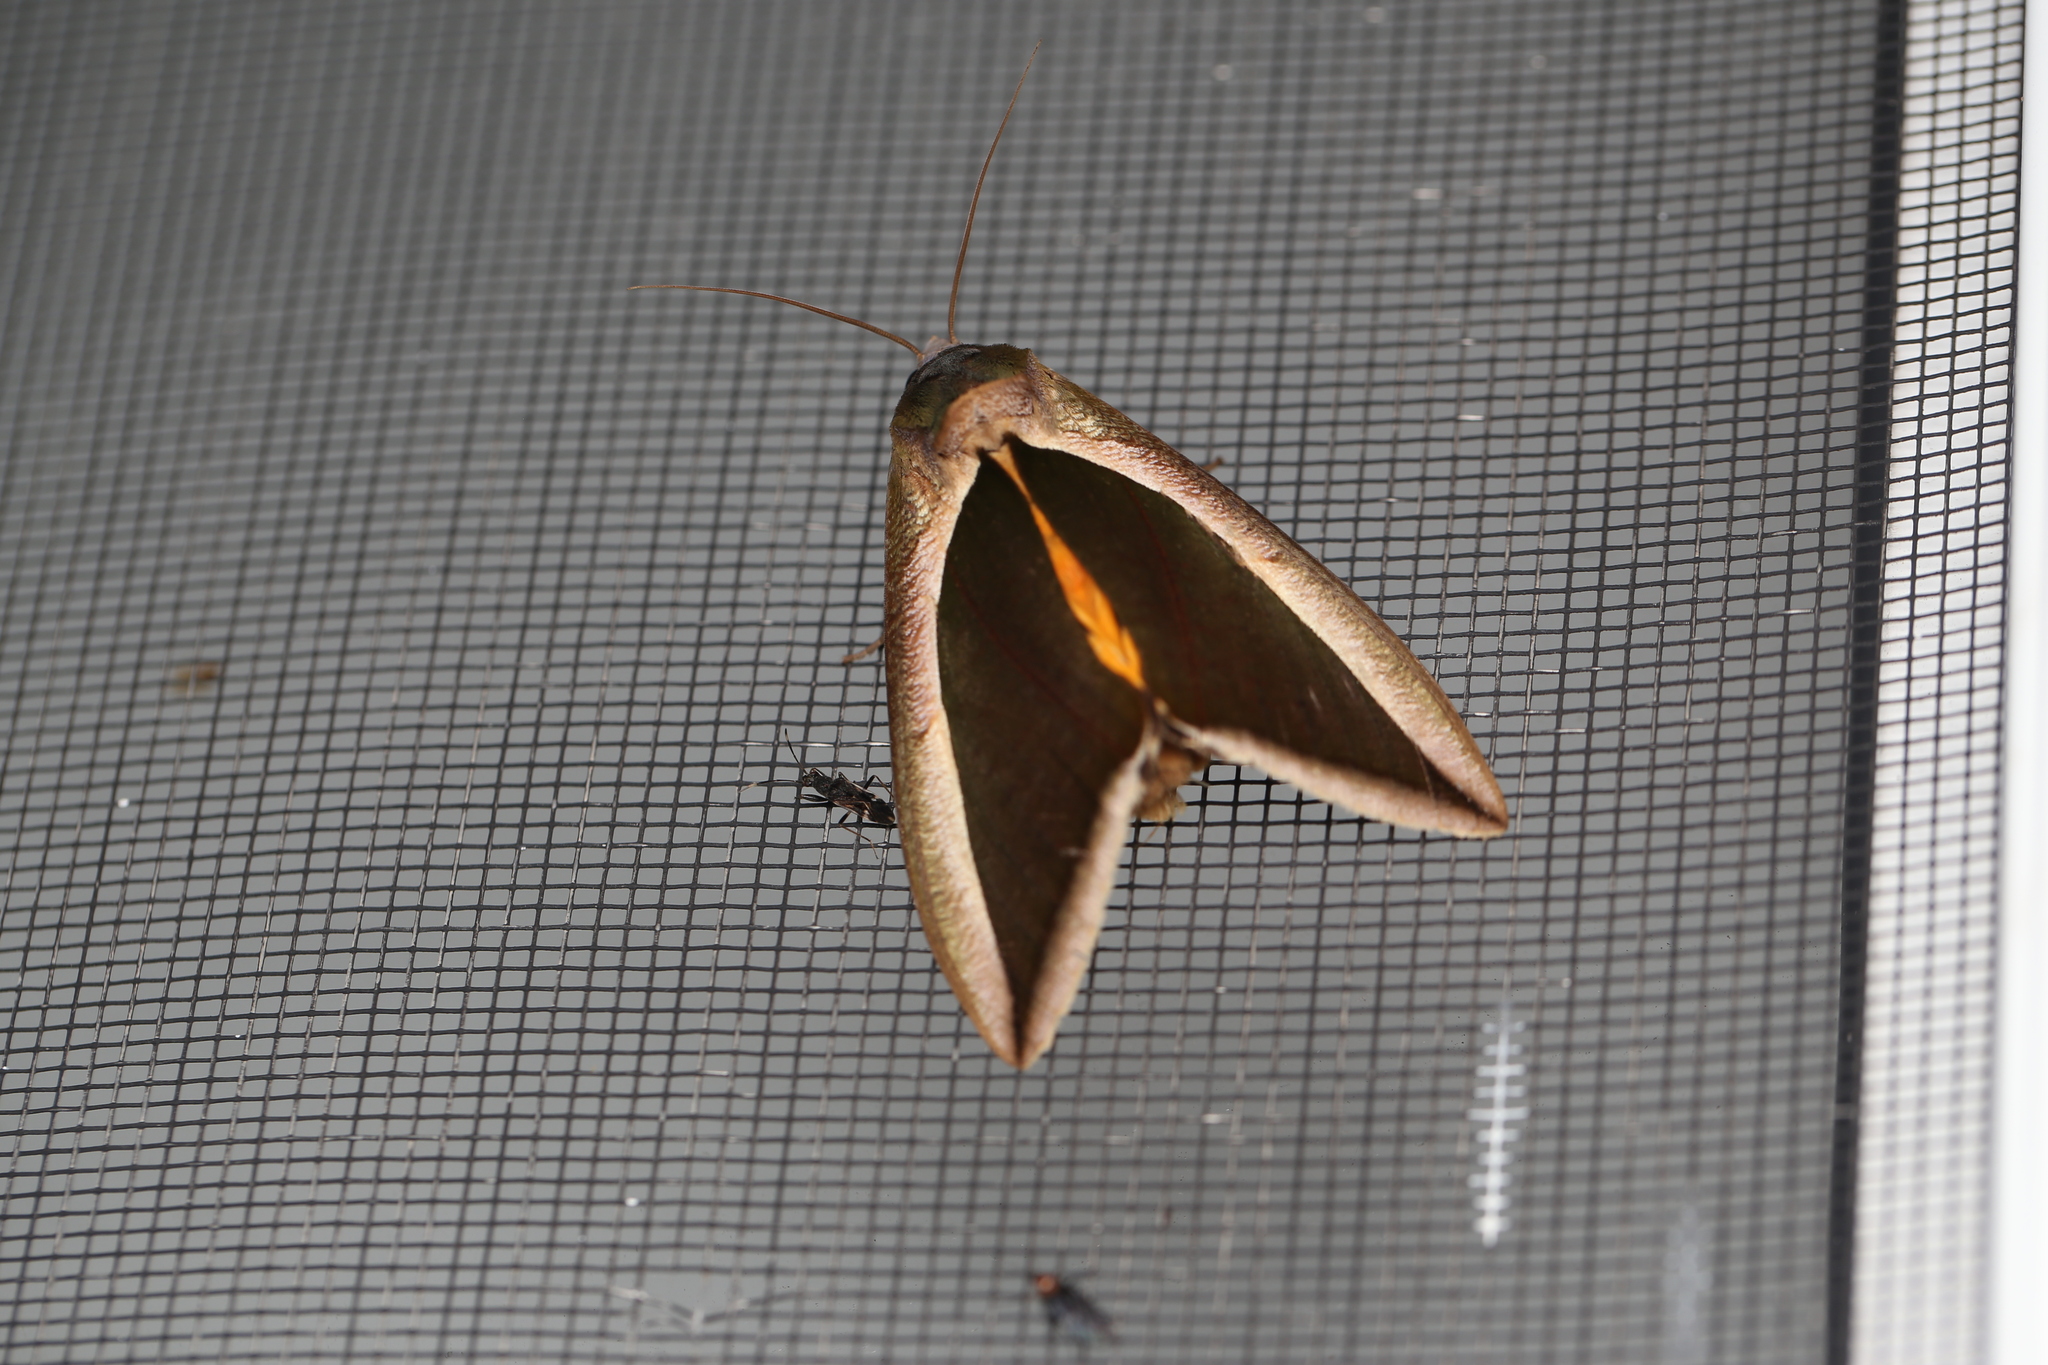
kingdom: Animalia
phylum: Arthropoda
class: Insecta
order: Lepidoptera
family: Erebidae
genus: Eudocima
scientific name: Eudocima salaminia
